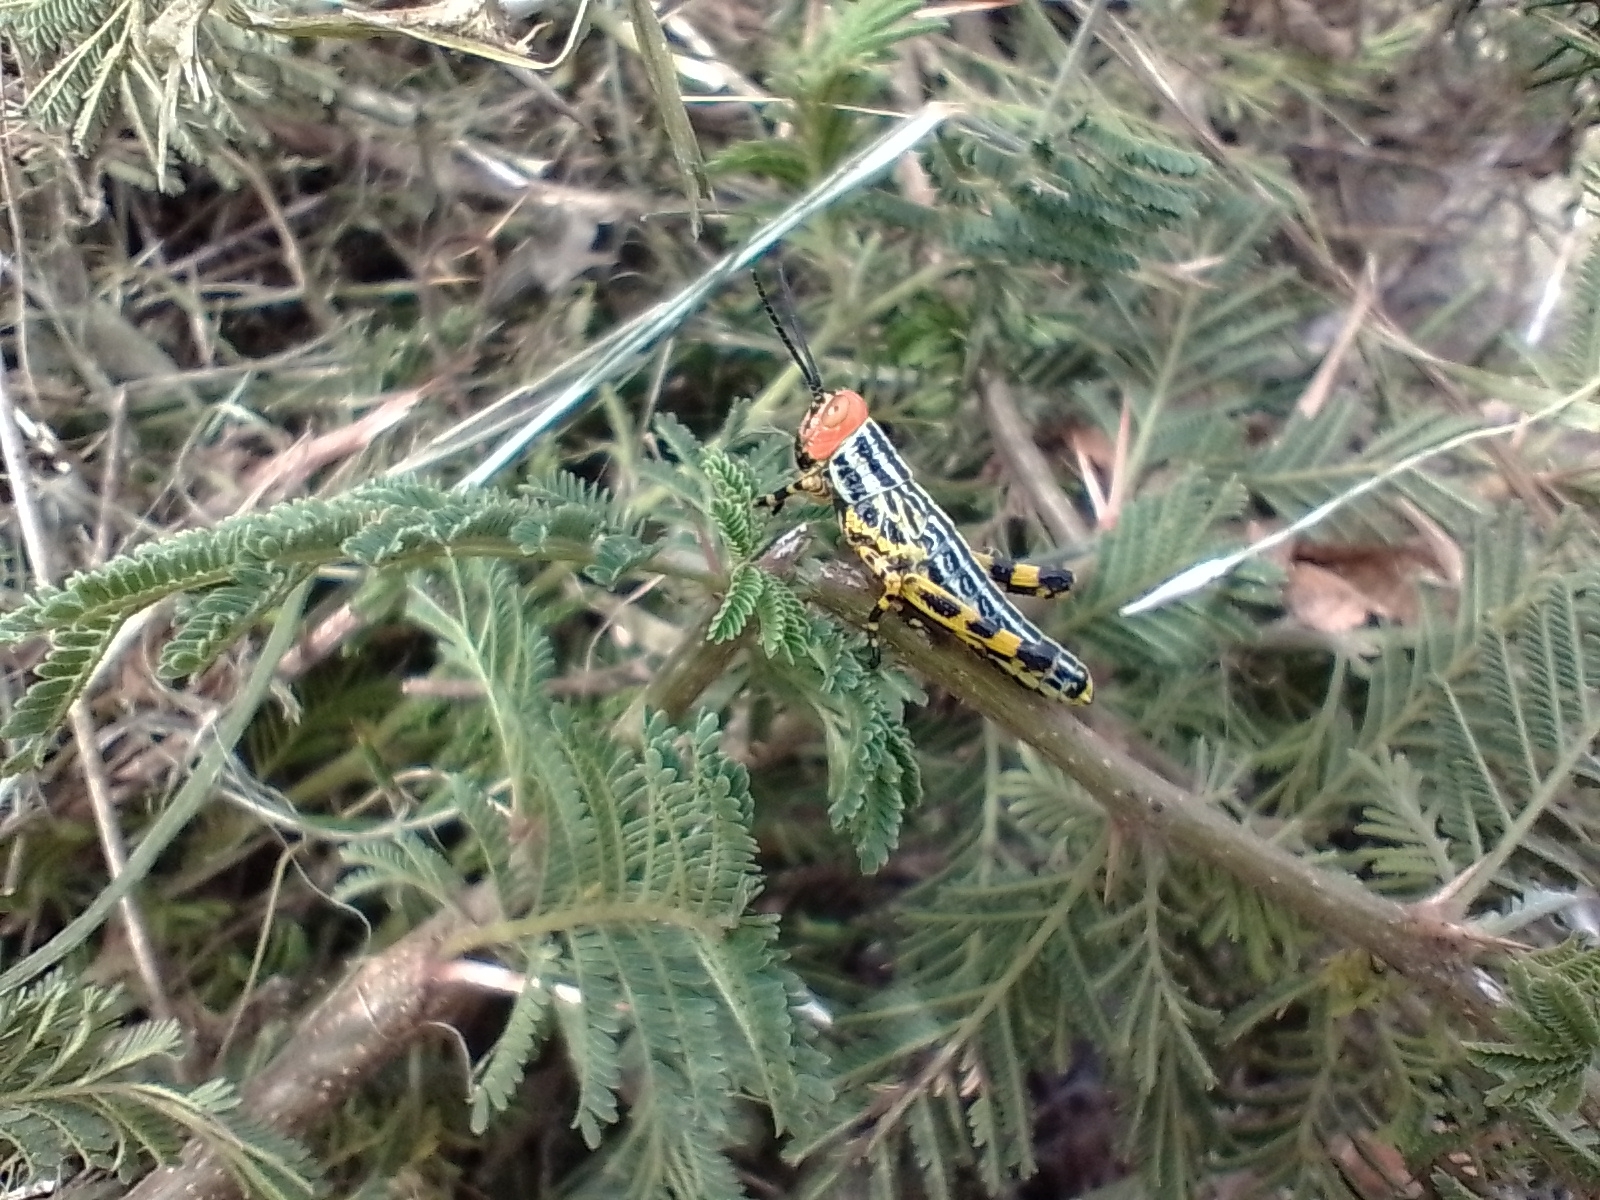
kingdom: Animalia
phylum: Arthropoda
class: Insecta
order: Orthoptera
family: Romaleidae
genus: Zoniopoda
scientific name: Zoniopoda tarsata
